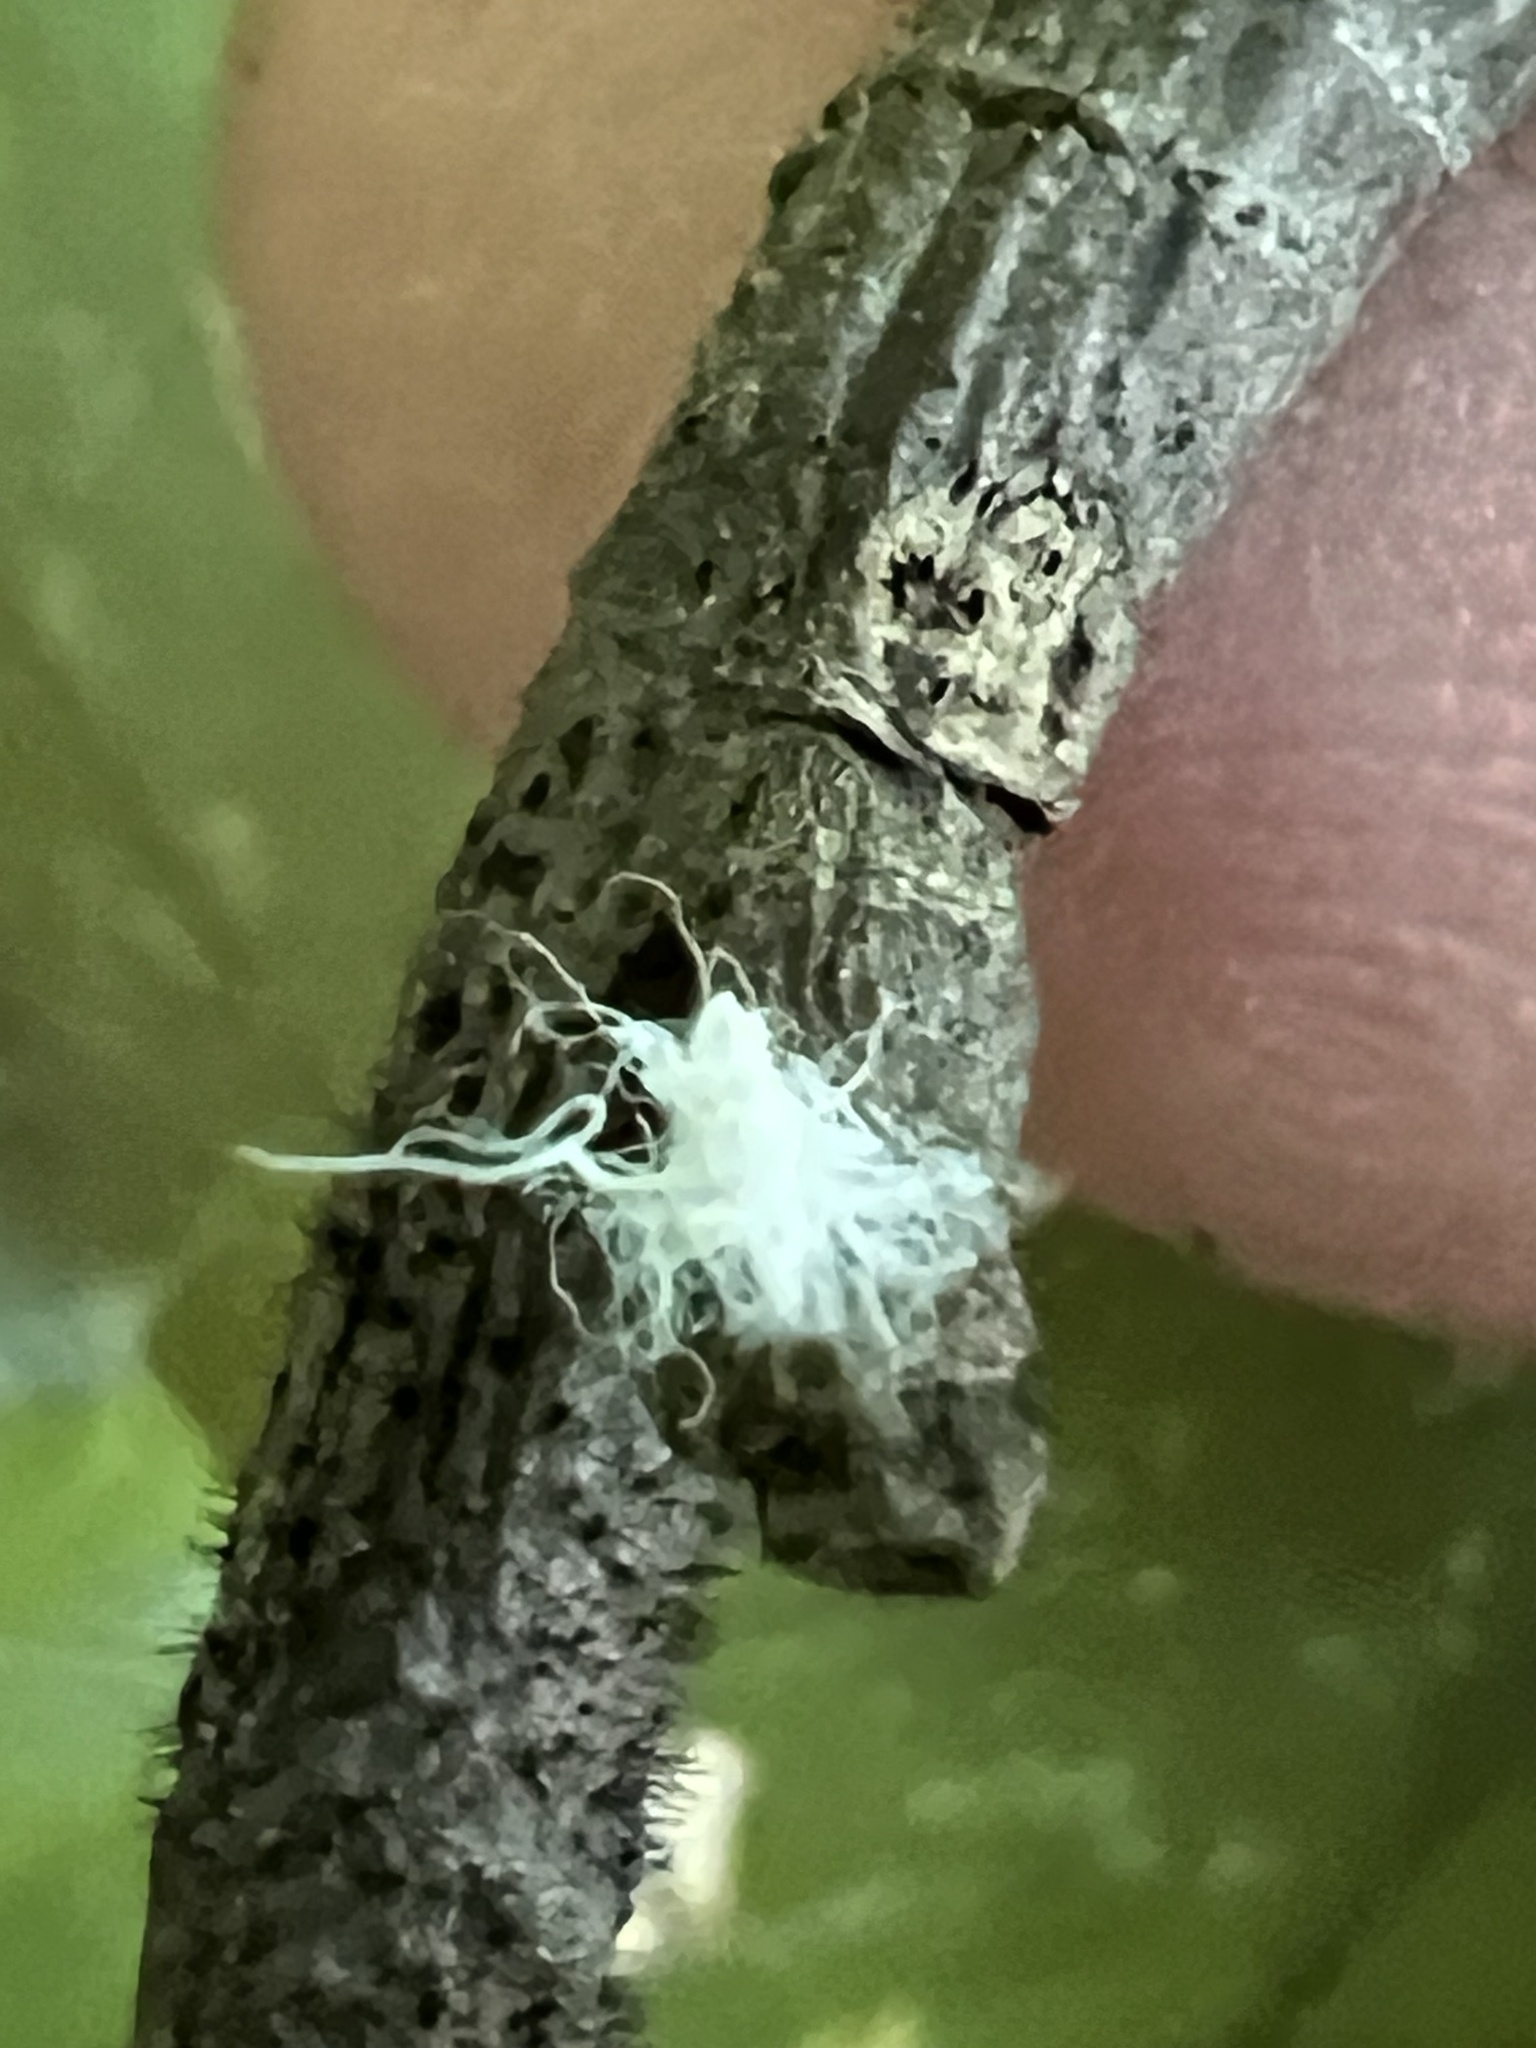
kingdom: Animalia
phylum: Arthropoda
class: Insecta
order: Hemiptera
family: Aphididae
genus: Grylloprociphilus
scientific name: Grylloprociphilus imbricator
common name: Beech blight aphid
